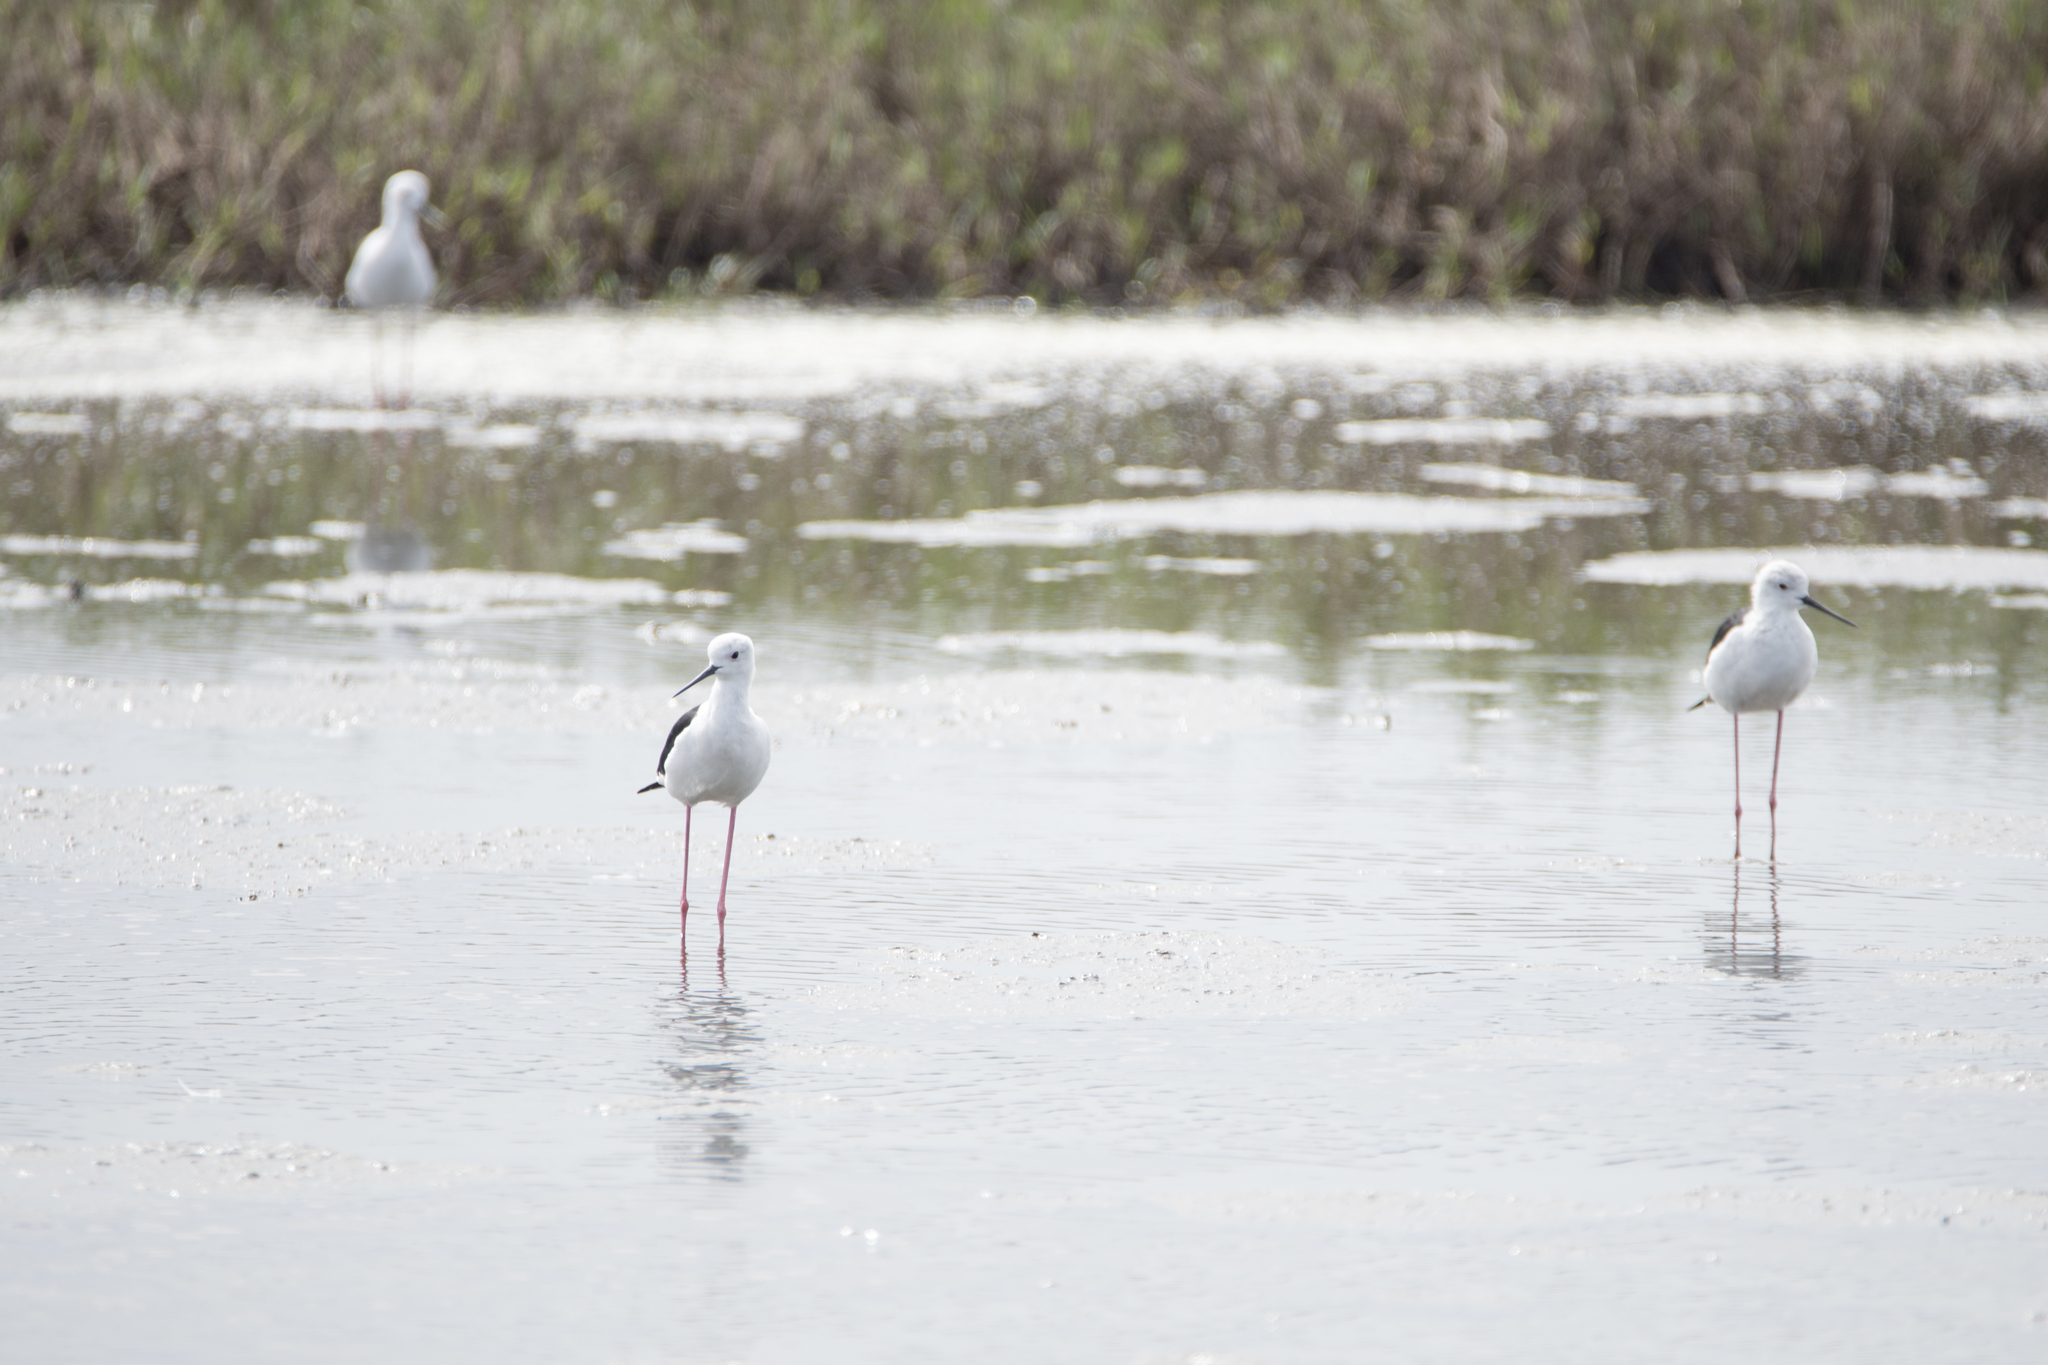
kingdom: Animalia
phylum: Chordata
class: Aves
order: Charadriiformes
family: Recurvirostridae
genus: Himantopus
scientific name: Himantopus himantopus
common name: Black-winged stilt
